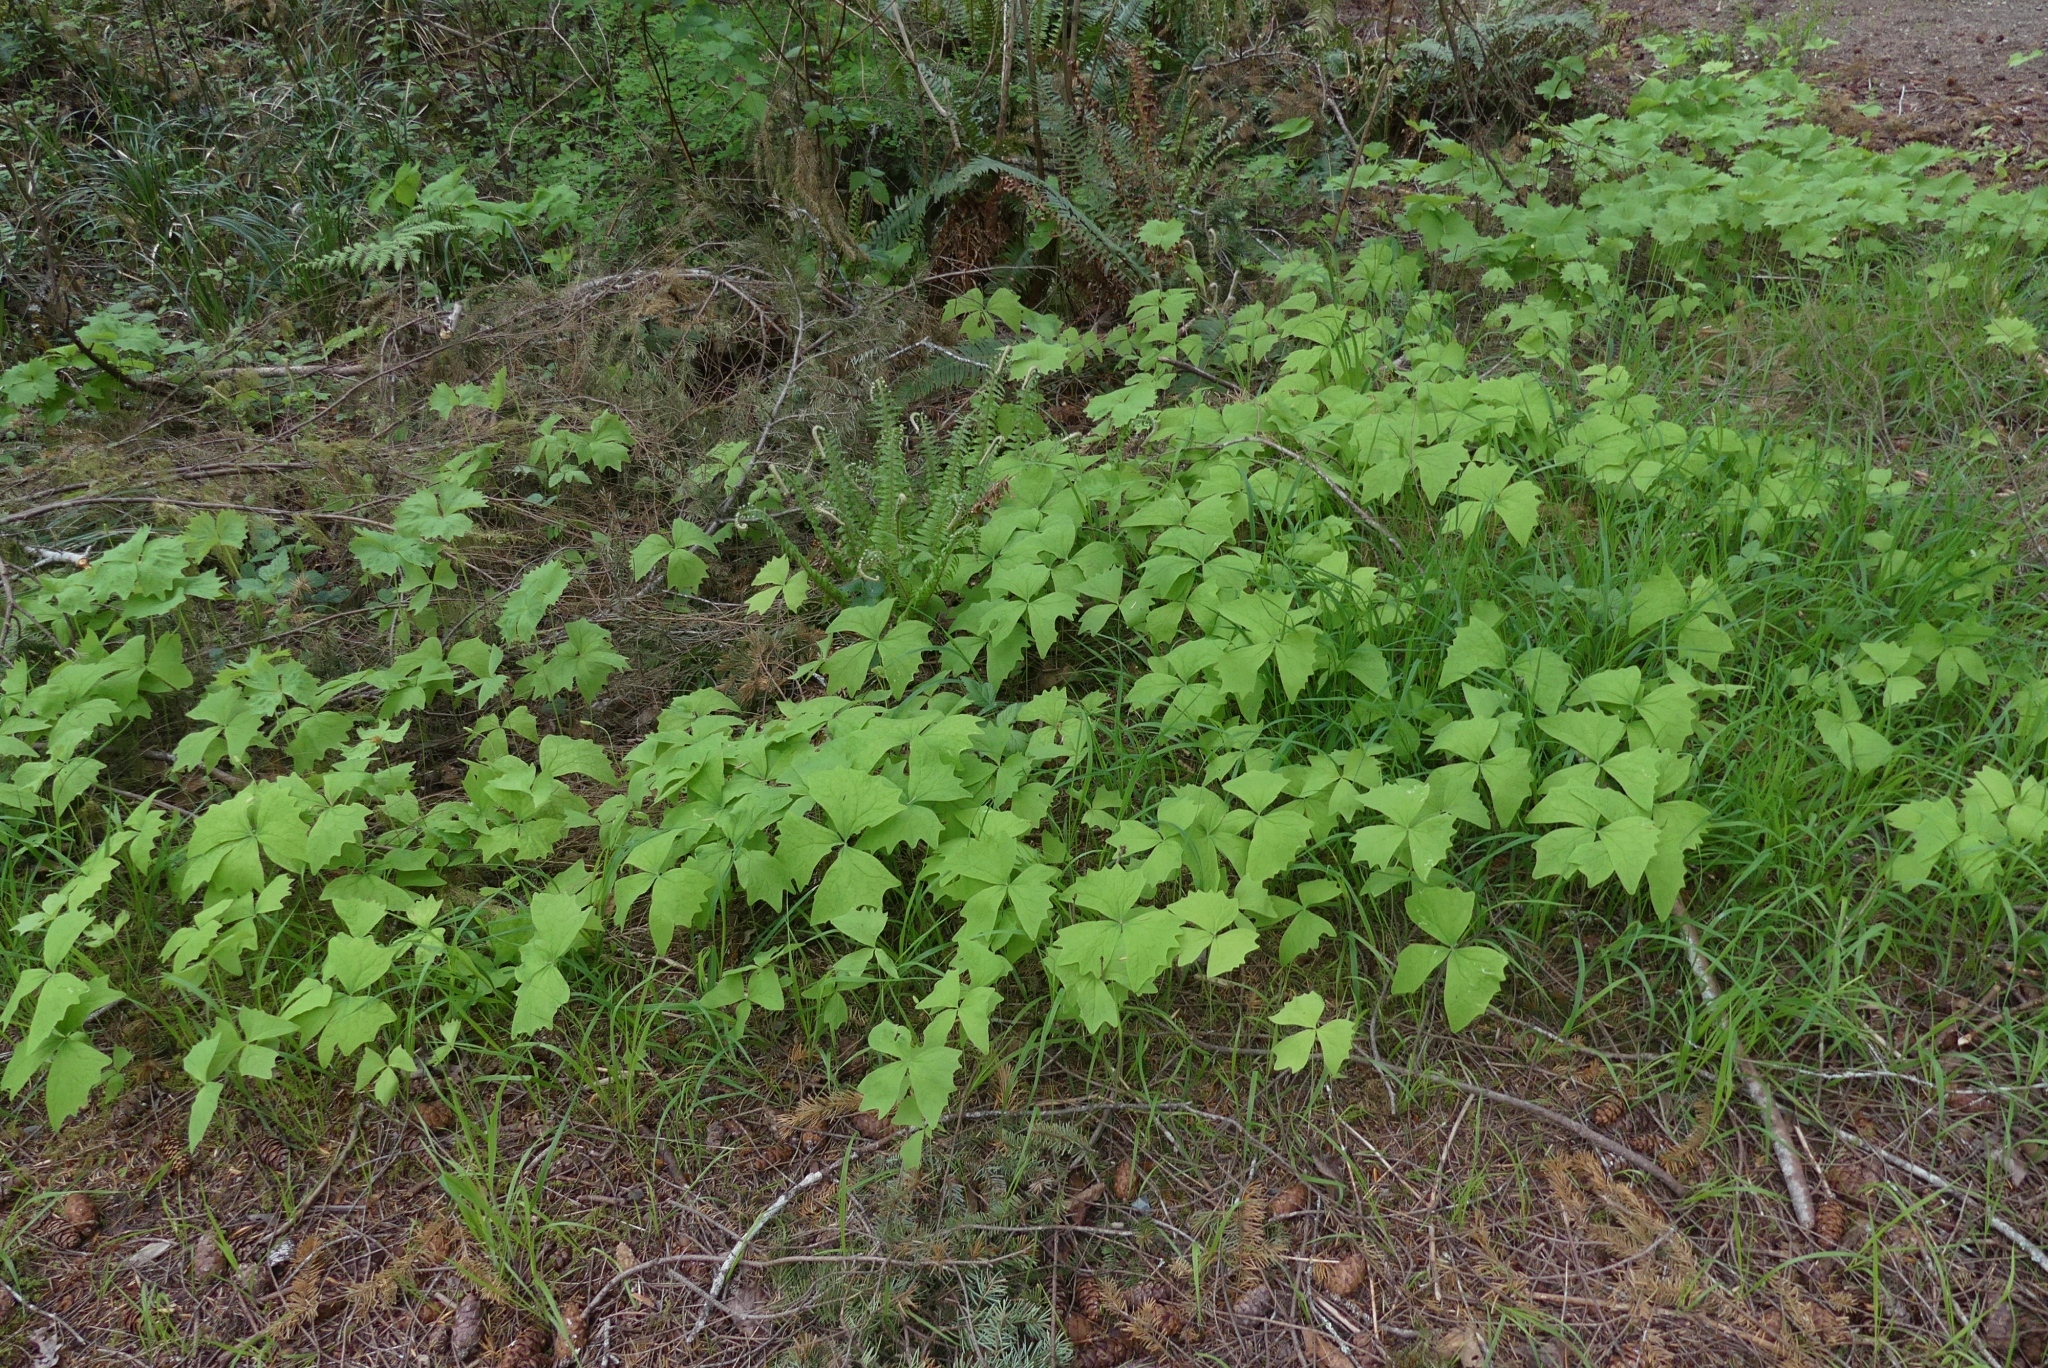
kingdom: Plantae
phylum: Tracheophyta
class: Magnoliopsida
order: Ranunculales
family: Berberidaceae
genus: Achlys
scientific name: Achlys triphylla
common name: Vanilla-leaf
